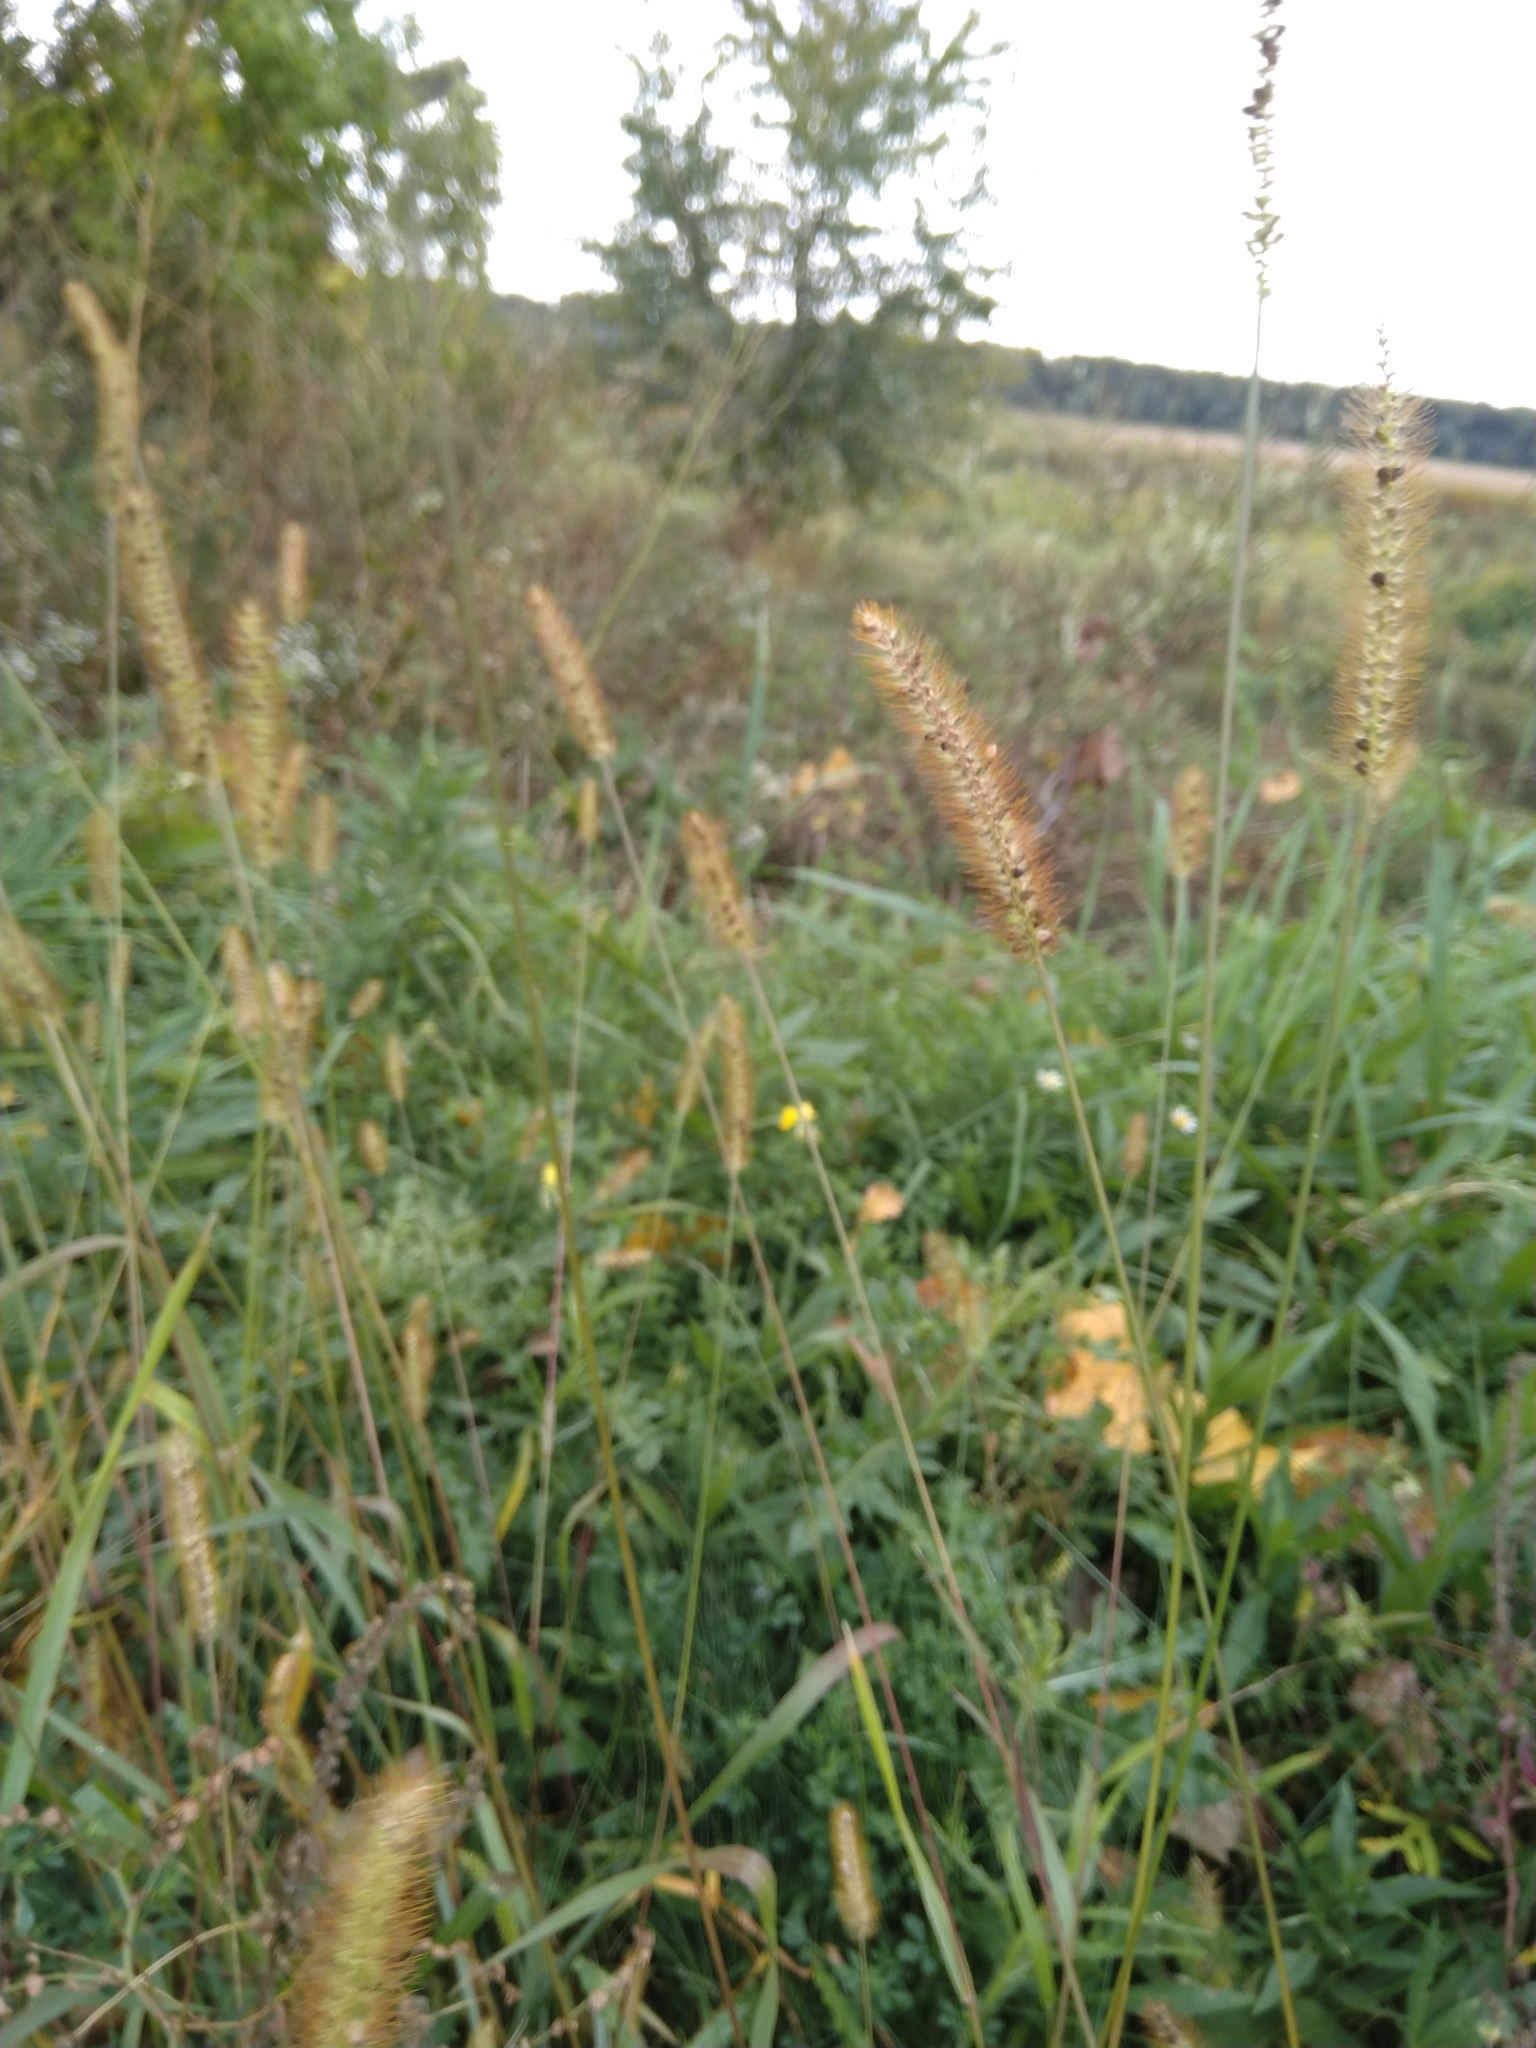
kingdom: Plantae
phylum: Tracheophyta
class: Liliopsida
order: Poales
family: Poaceae
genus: Setaria
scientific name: Setaria pumila
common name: Yellow bristle-grass
